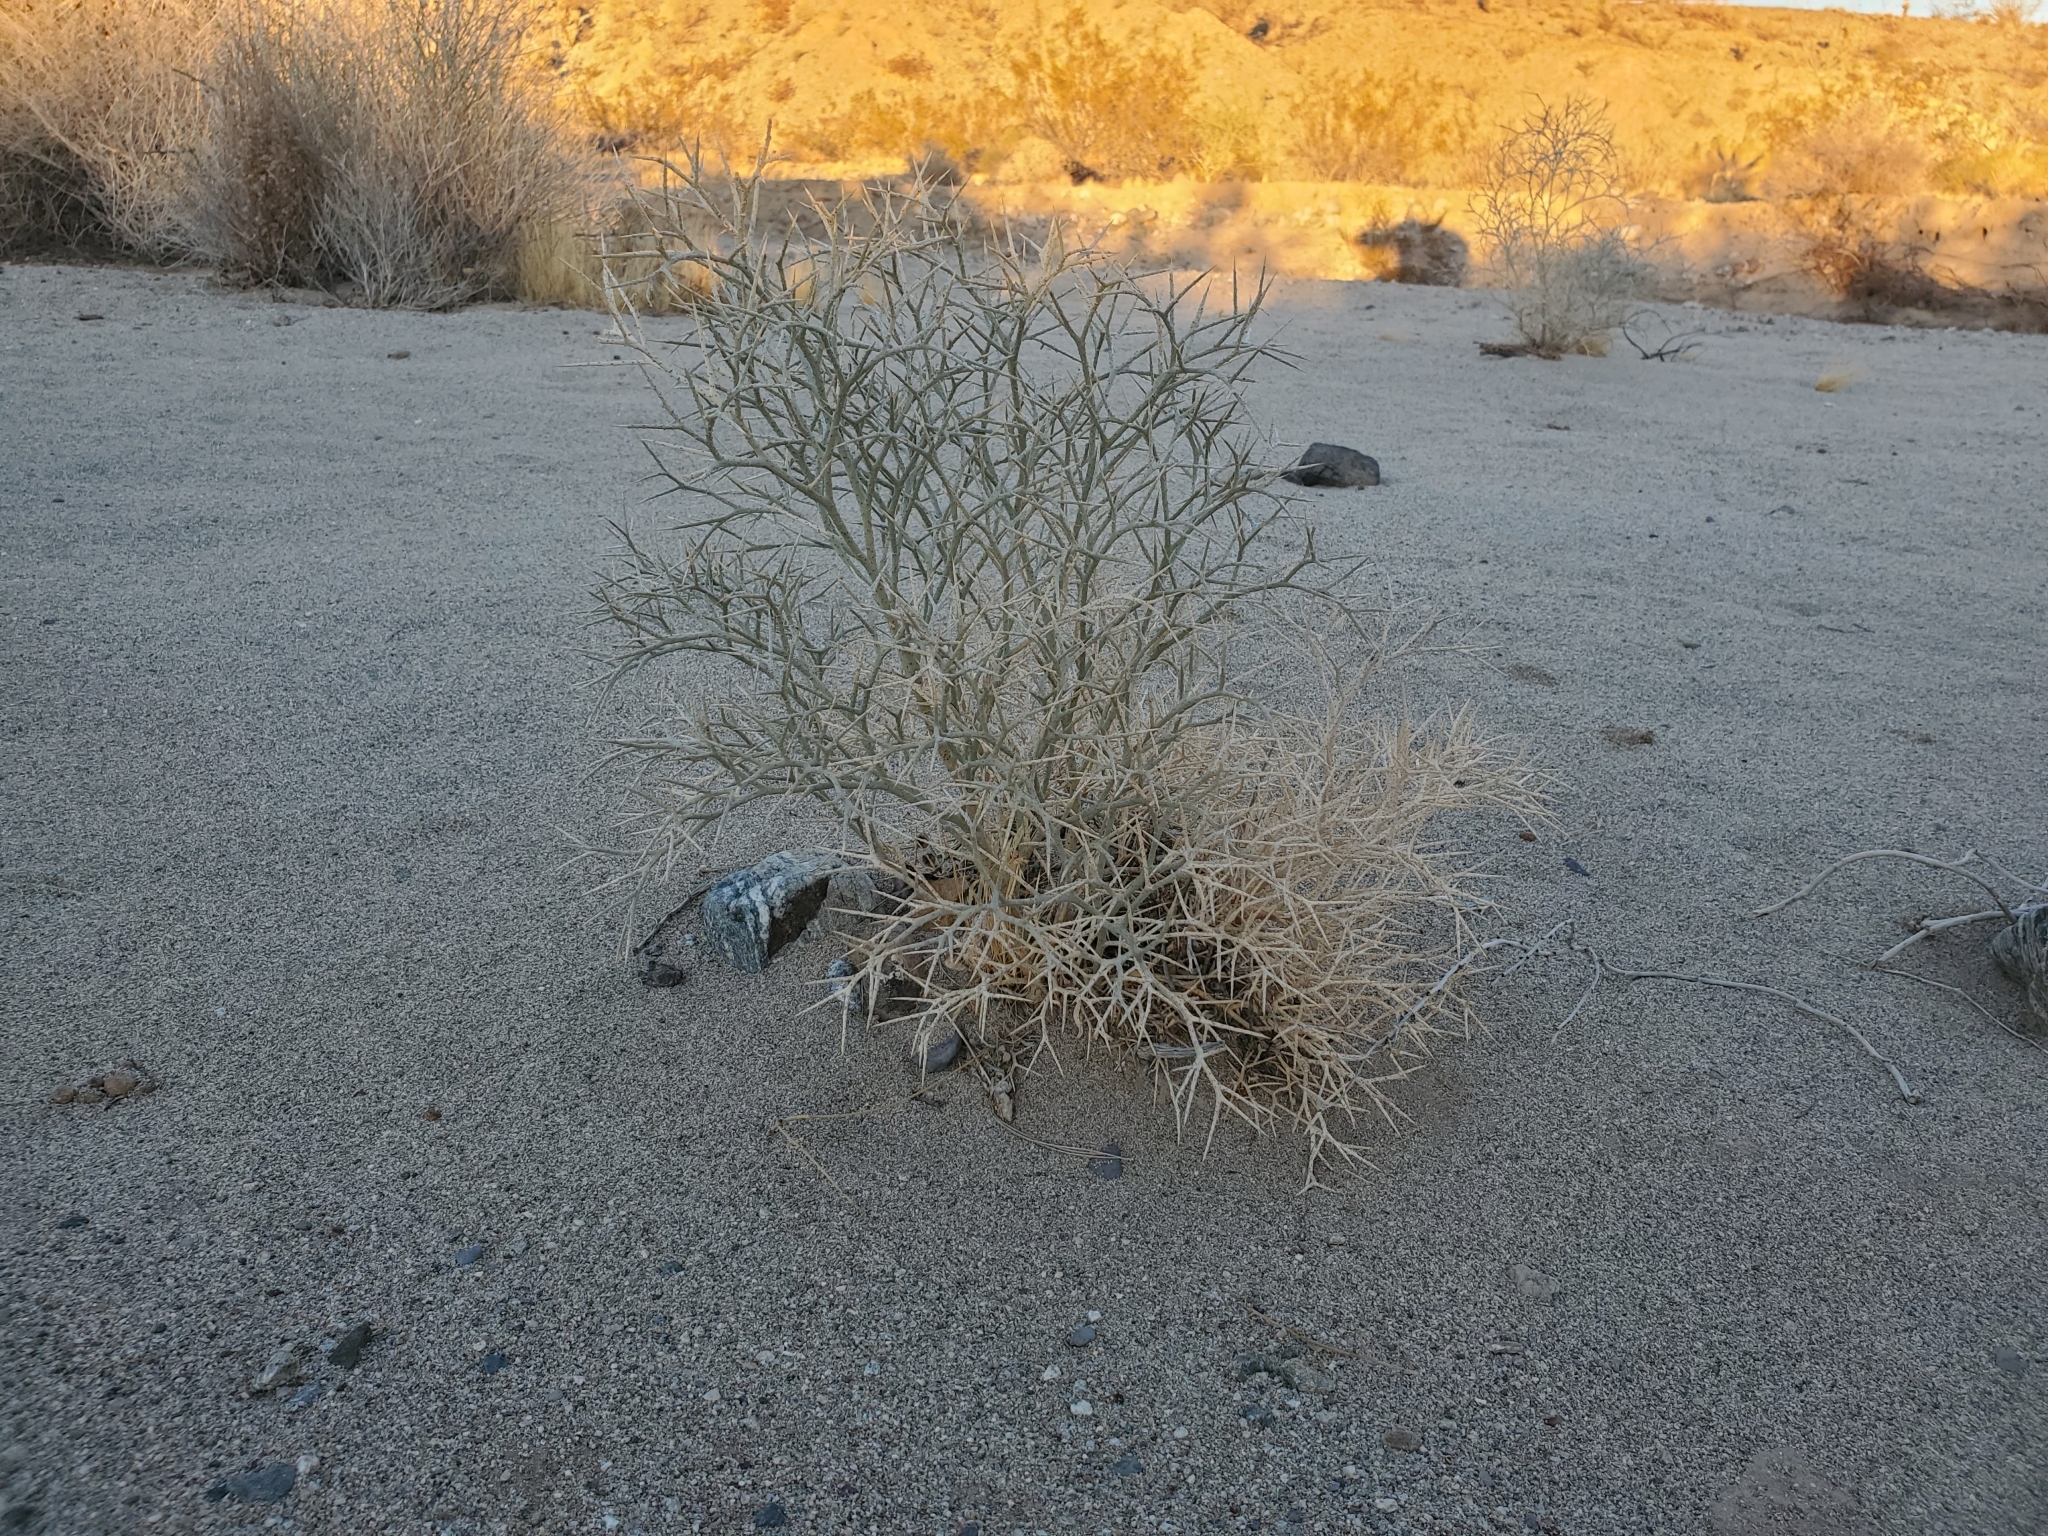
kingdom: Plantae
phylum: Tracheophyta
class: Magnoliopsida
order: Fabales
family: Fabaceae
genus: Psorothamnus
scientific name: Psorothamnus spinosus
